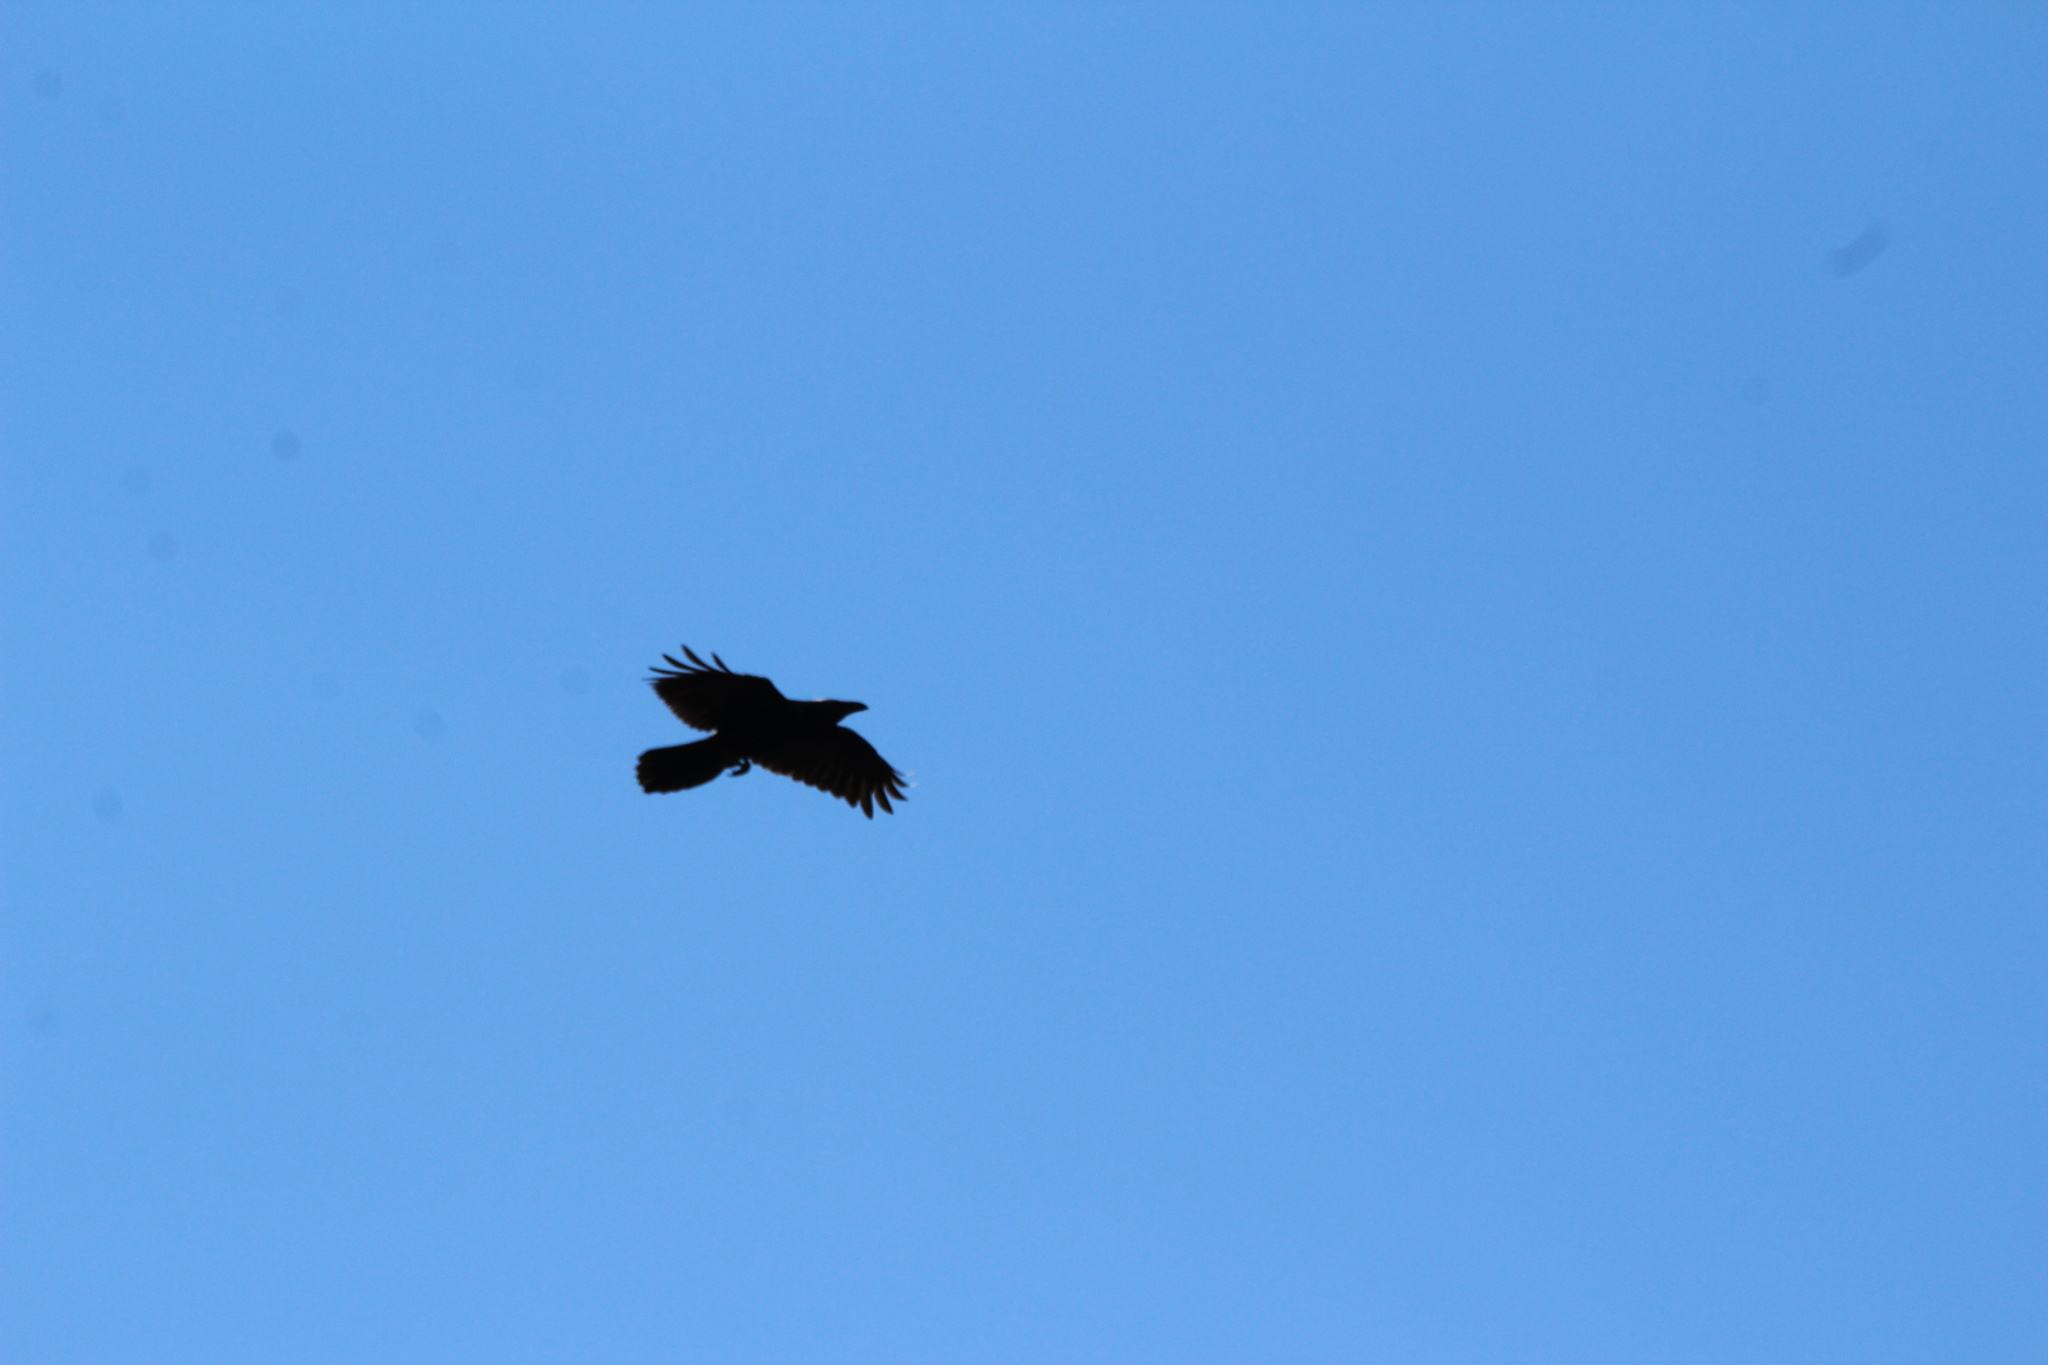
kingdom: Animalia
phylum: Chordata
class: Aves
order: Passeriformes
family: Corvidae
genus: Corvus
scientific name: Corvus corax
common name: Common raven
